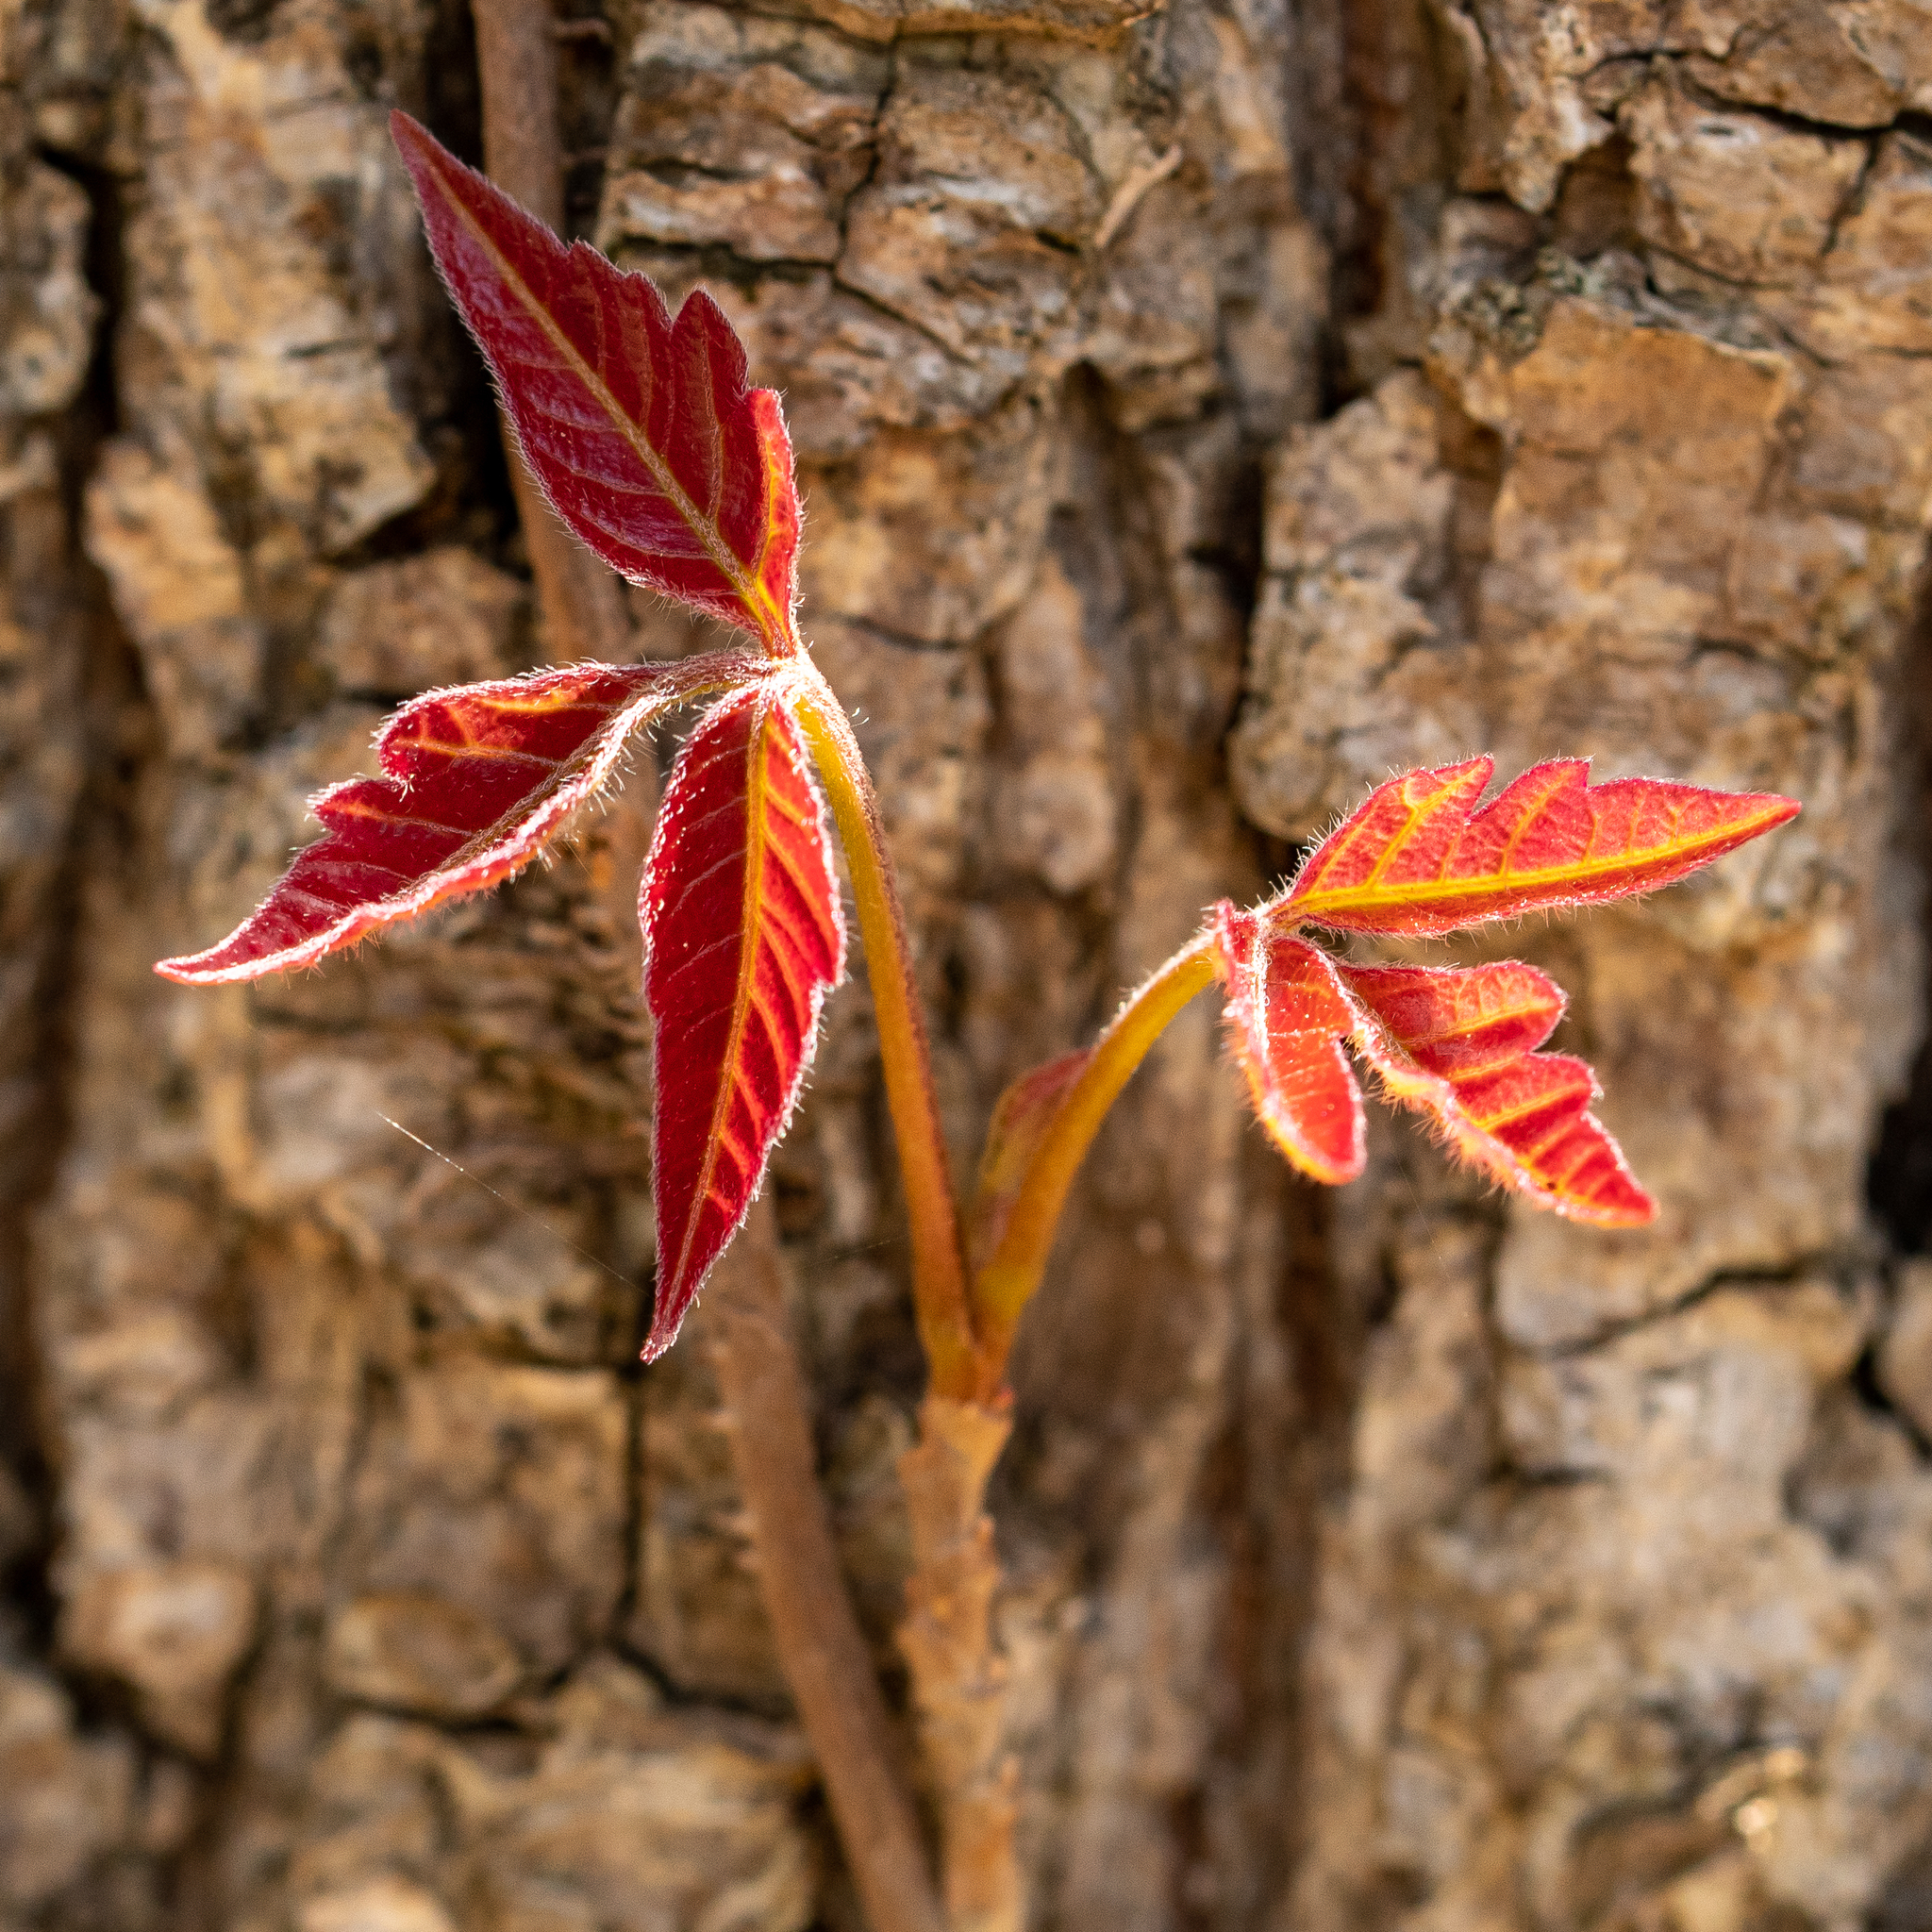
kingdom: Plantae
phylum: Tracheophyta
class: Magnoliopsida
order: Sapindales
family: Anacardiaceae
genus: Toxicodendron
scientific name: Toxicodendron radicans
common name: Poison ivy
